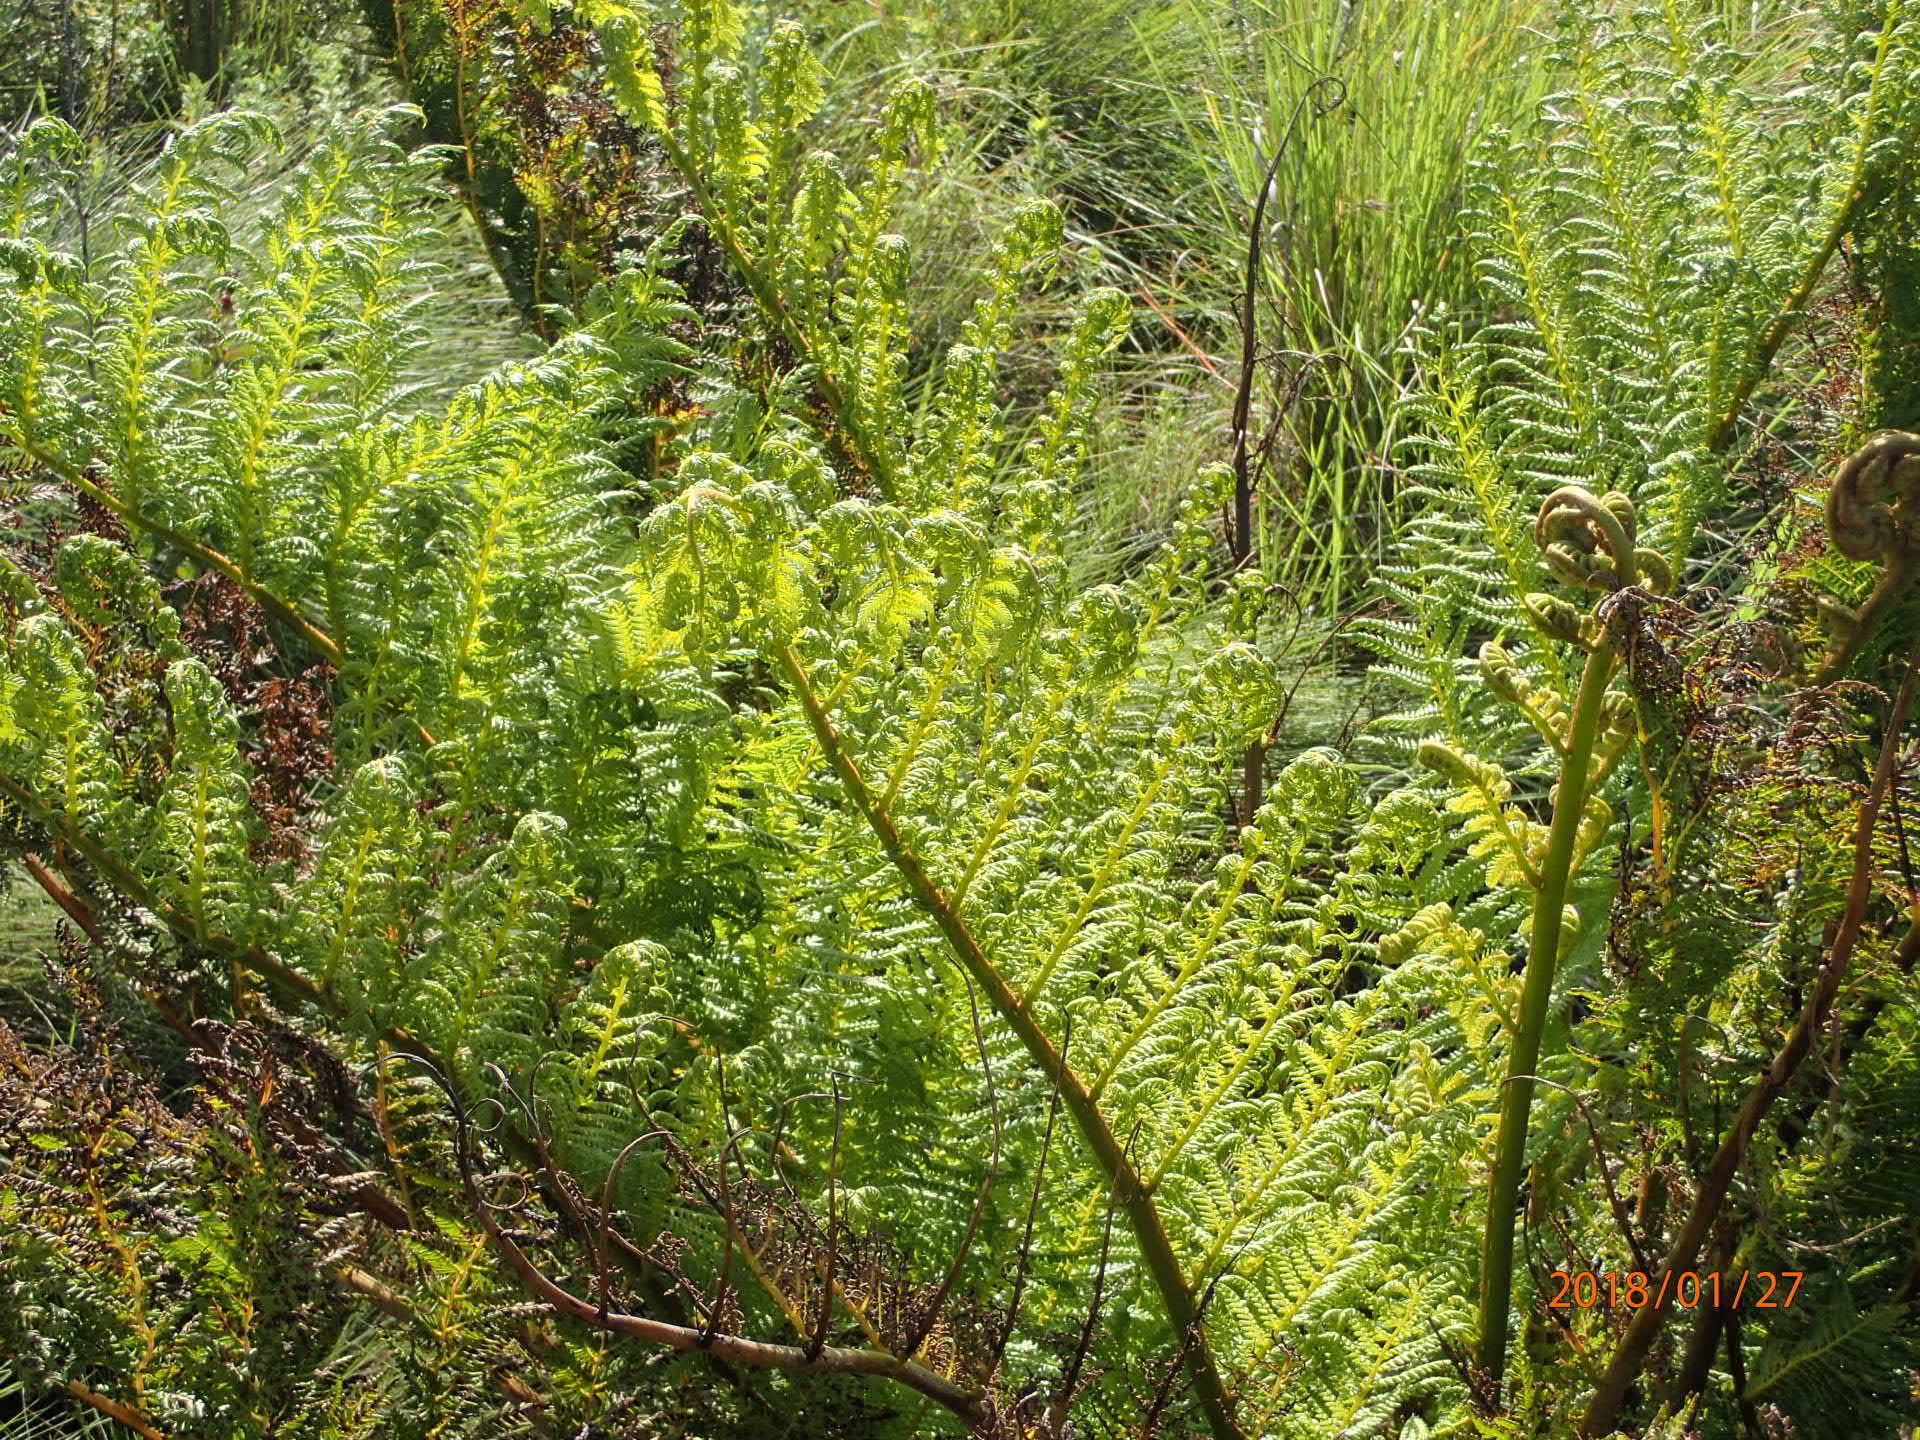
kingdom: Plantae
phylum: Tracheophyta
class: Polypodiopsida
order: Cyatheales
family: Cyatheaceae
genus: Alsophila
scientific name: Alsophila dregei
